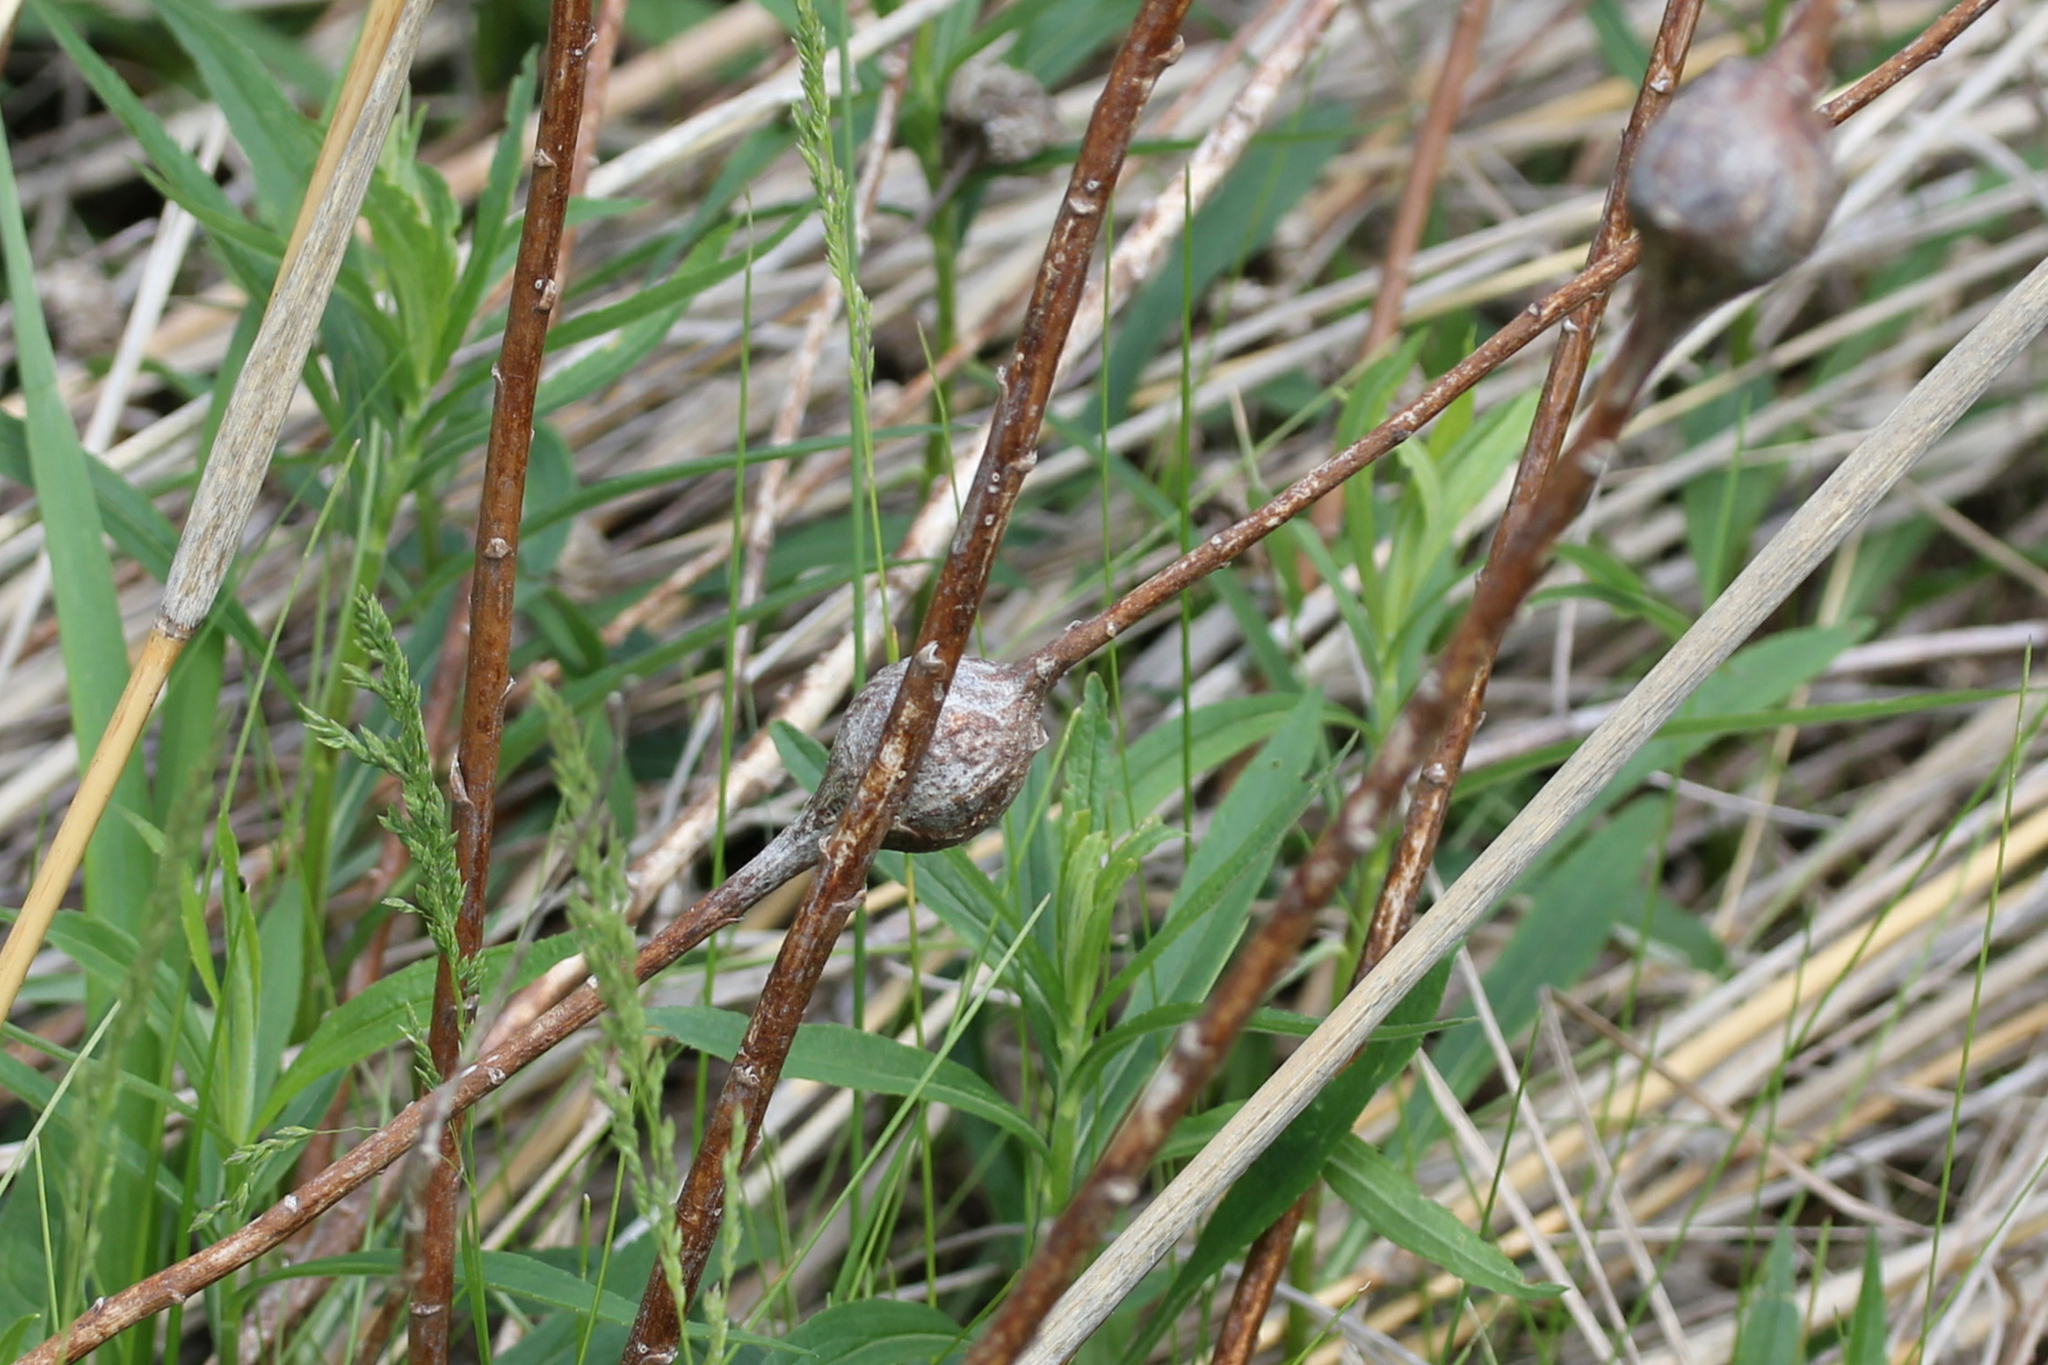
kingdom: Animalia
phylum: Arthropoda
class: Insecta
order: Diptera
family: Tephritidae
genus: Eurosta
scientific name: Eurosta solidaginis
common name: Goldenrod gall fly
